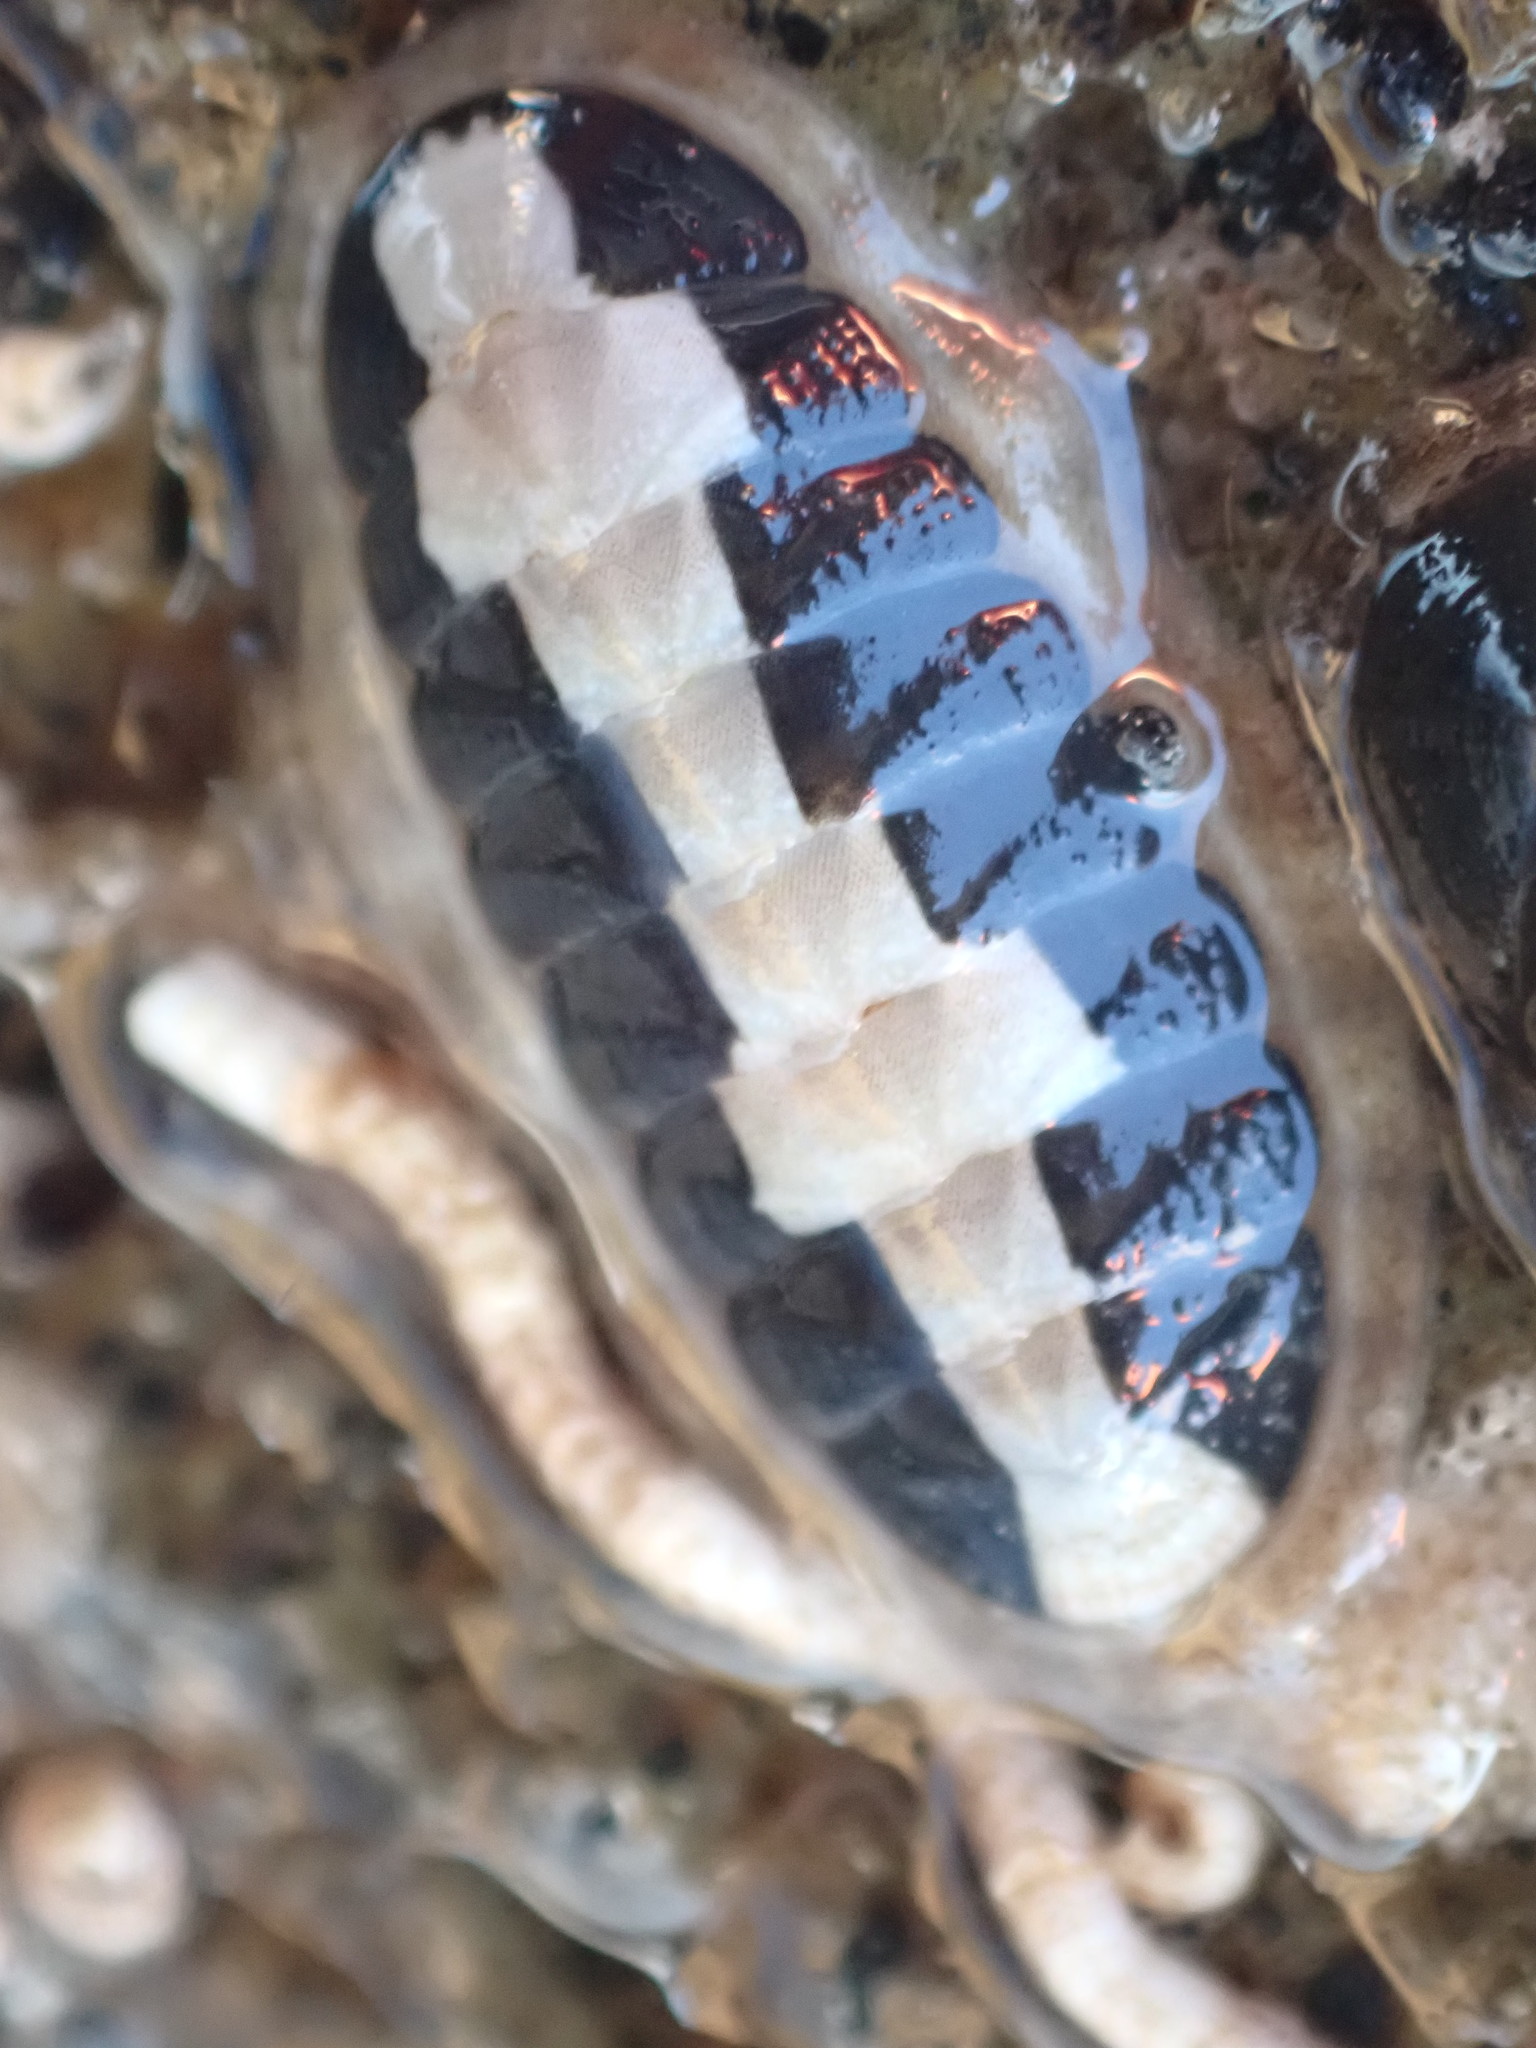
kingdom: Animalia
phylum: Mollusca
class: Polyplacophora
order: Chitonida
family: Ischnochitonidae
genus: Ischnochiton
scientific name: Ischnochiton maorianus
